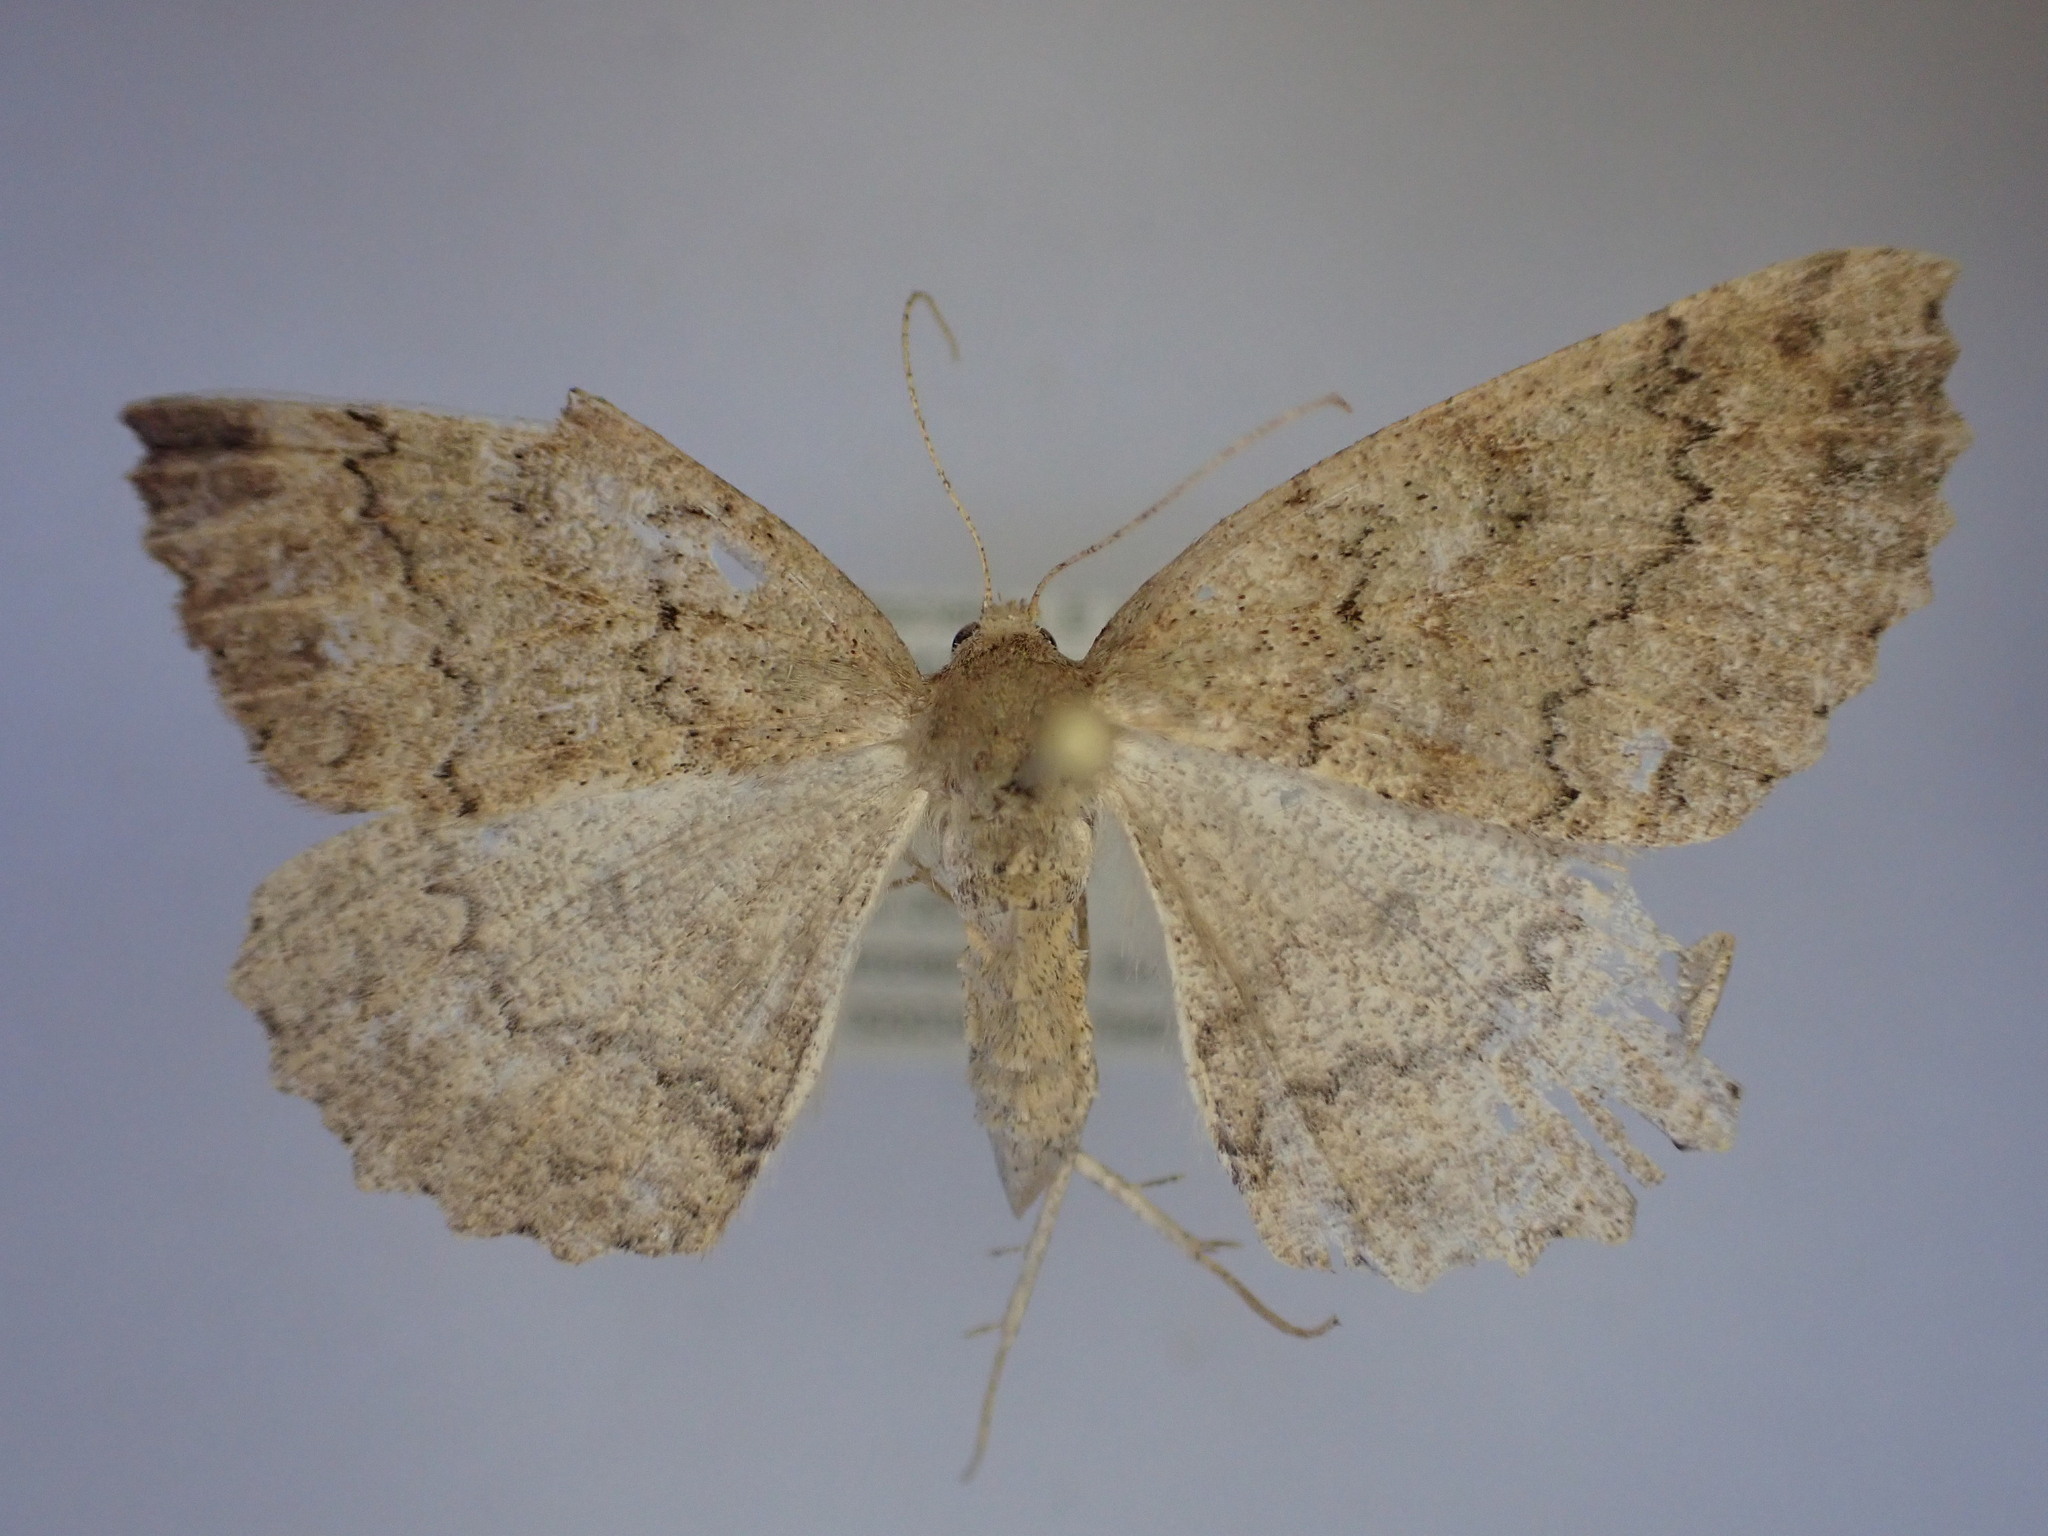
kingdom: Animalia
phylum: Arthropoda
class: Insecta
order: Lepidoptera
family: Geometridae
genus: Cleora
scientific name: Cleora scriptaria
